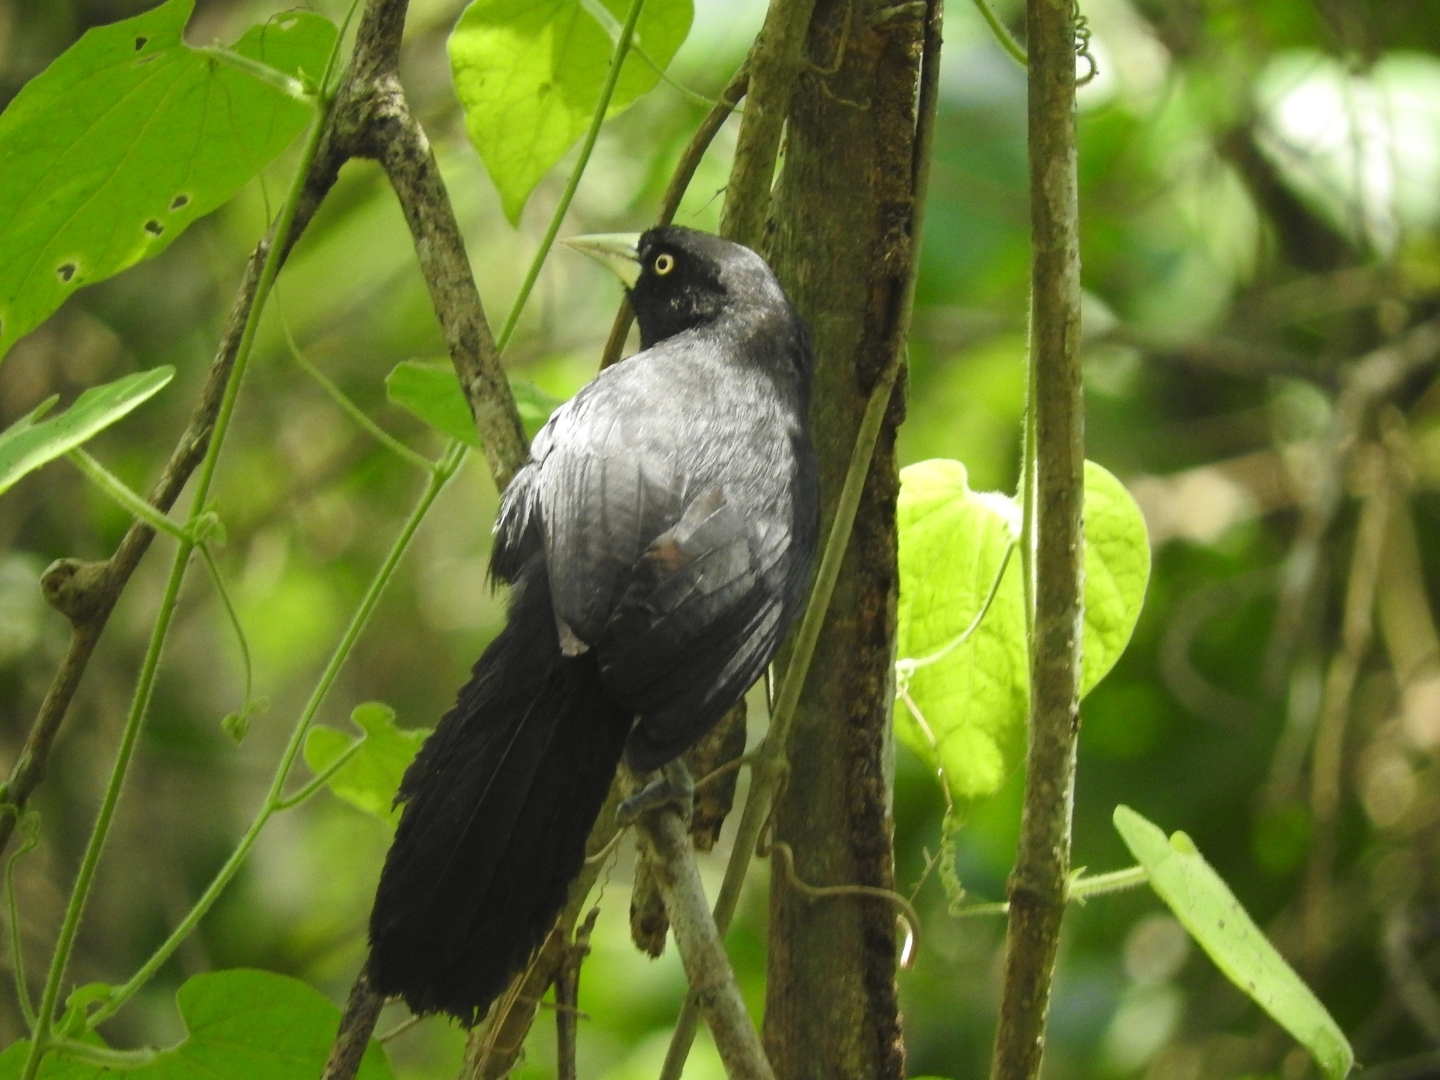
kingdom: Animalia
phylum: Chordata
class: Aves
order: Passeriformes
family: Icteridae
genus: Amblycercus
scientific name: Amblycercus holosericeus
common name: Yellow-billed cacique
